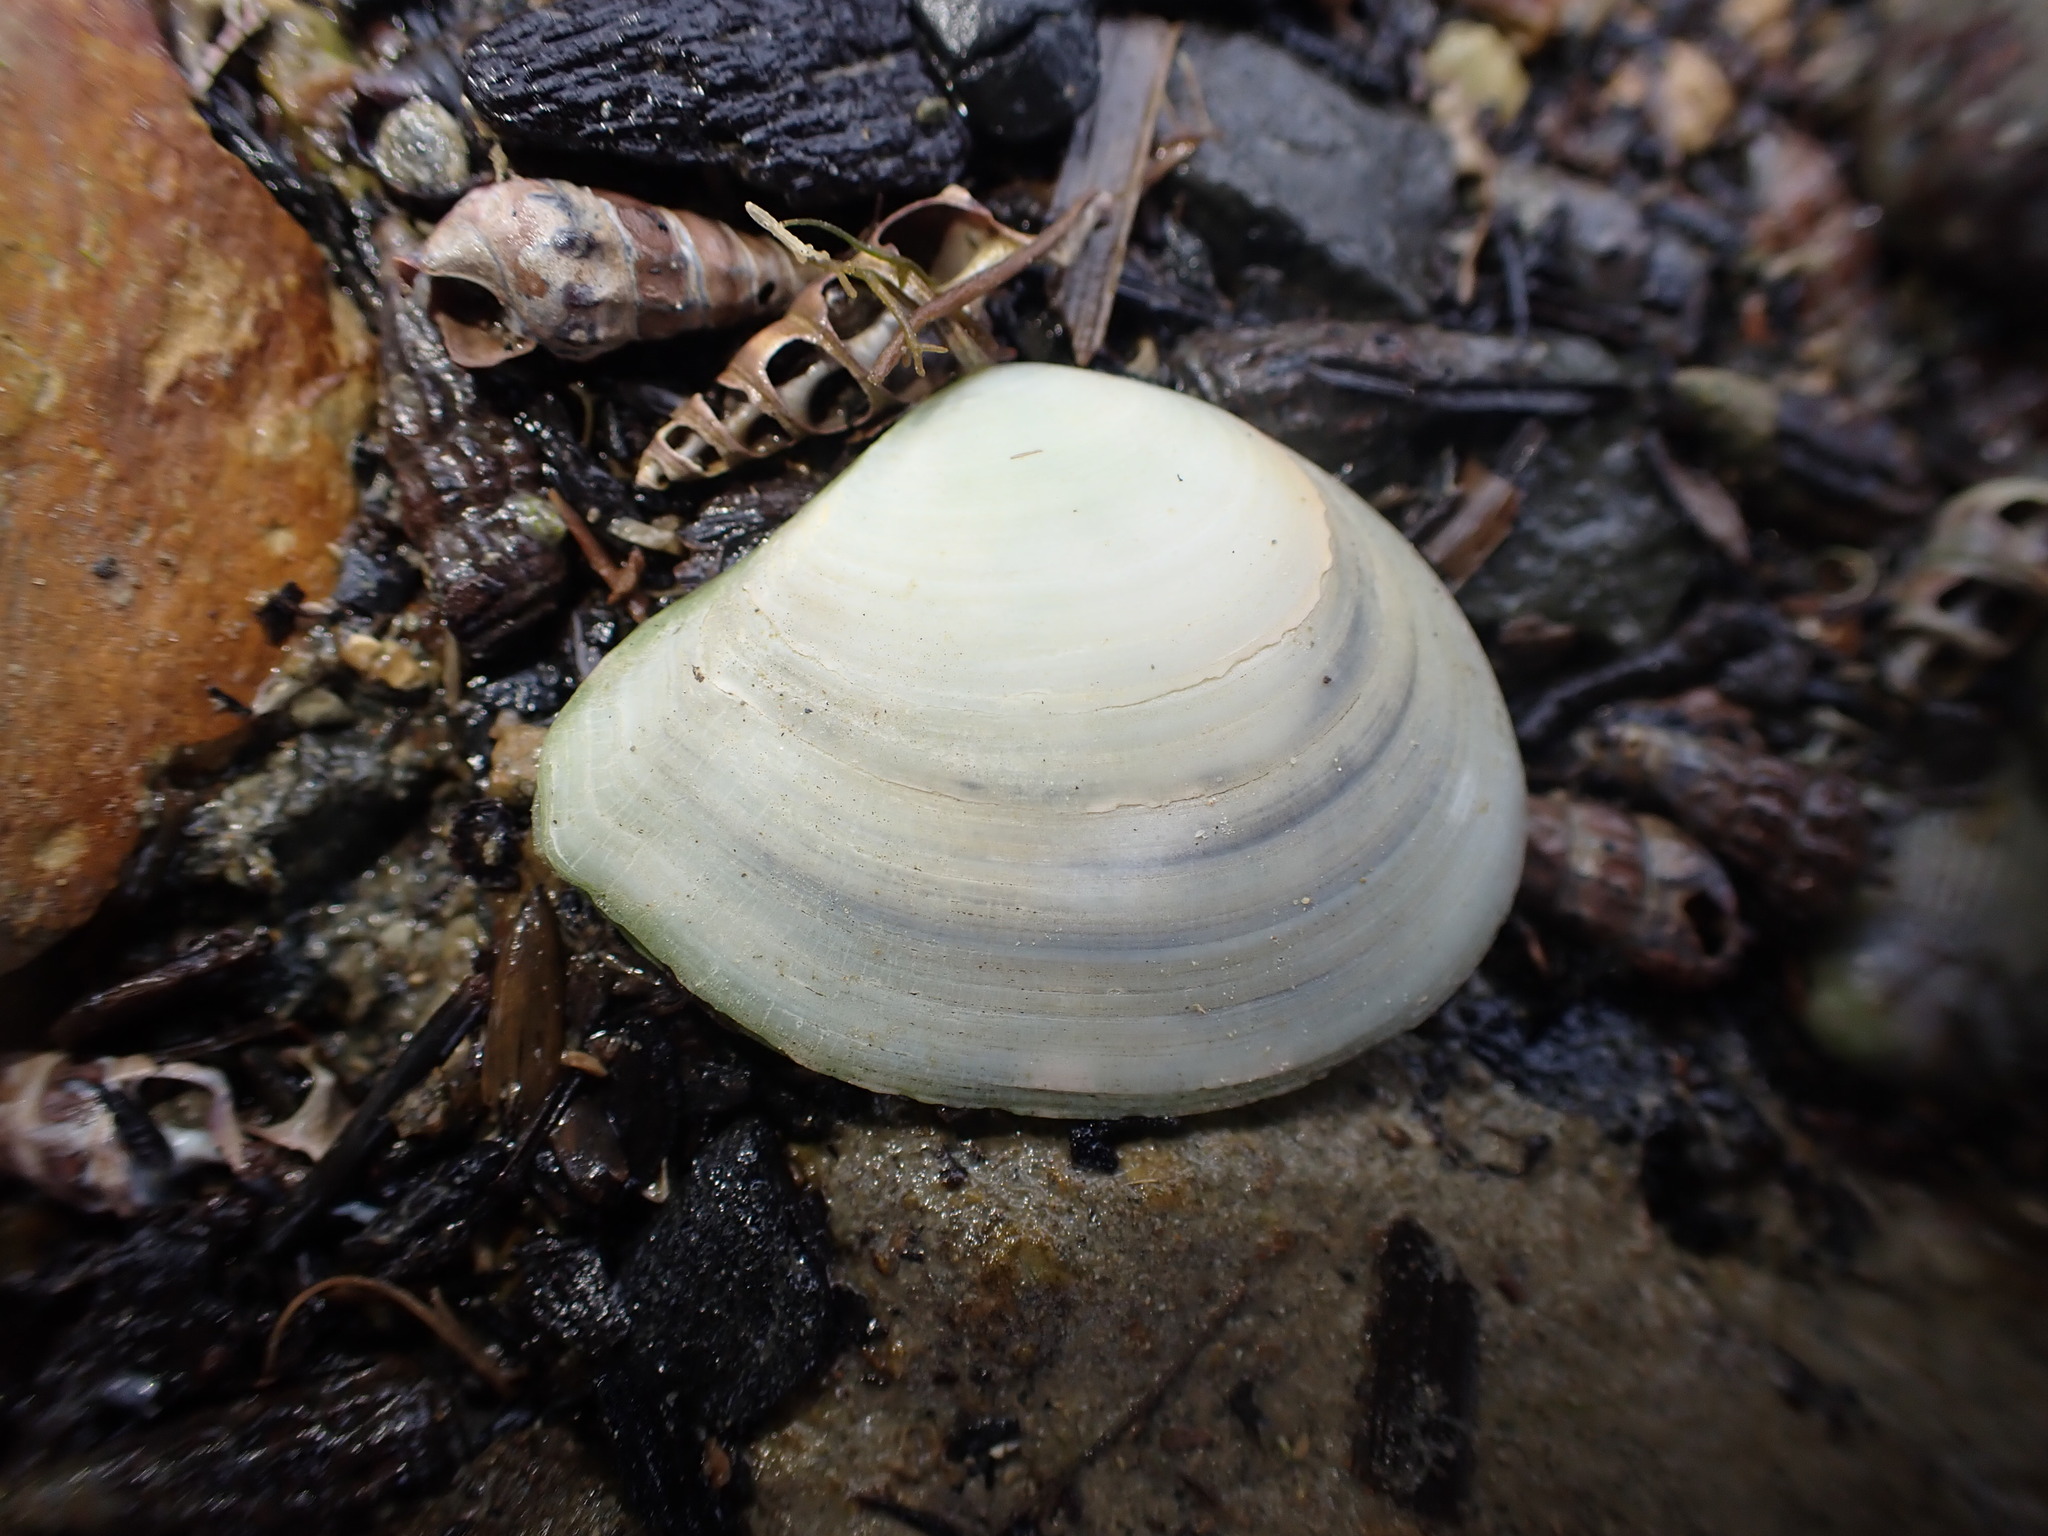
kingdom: Animalia
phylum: Mollusca
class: Bivalvia
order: Cardiida
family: Tellinidae
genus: Macomona
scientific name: Macomona liliana
